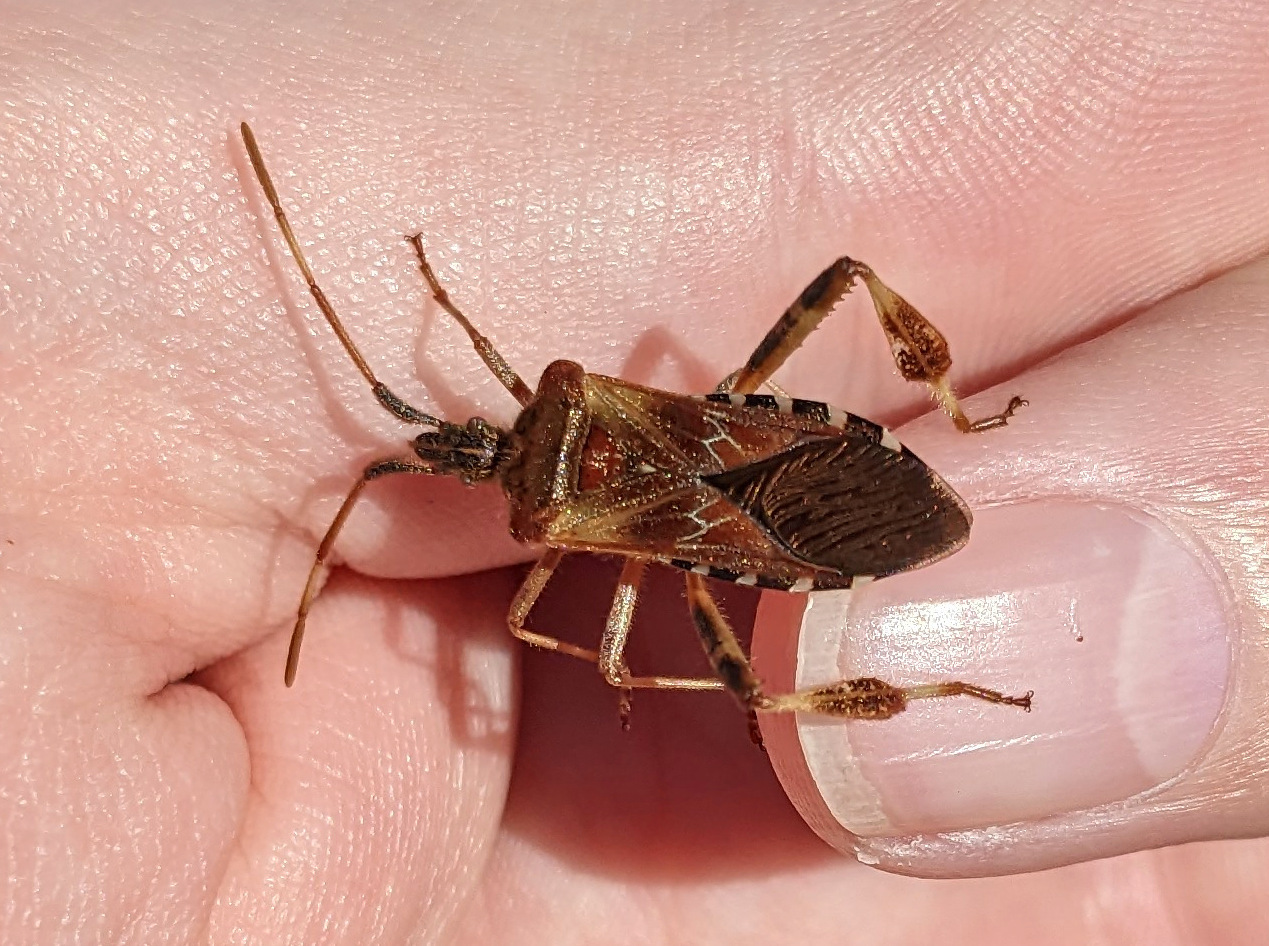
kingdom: Animalia
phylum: Arthropoda
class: Insecta
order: Hemiptera
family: Coreidae
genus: Leptoglossus
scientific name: Leptoglossus occidentalis
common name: Western conifer-seed bug
